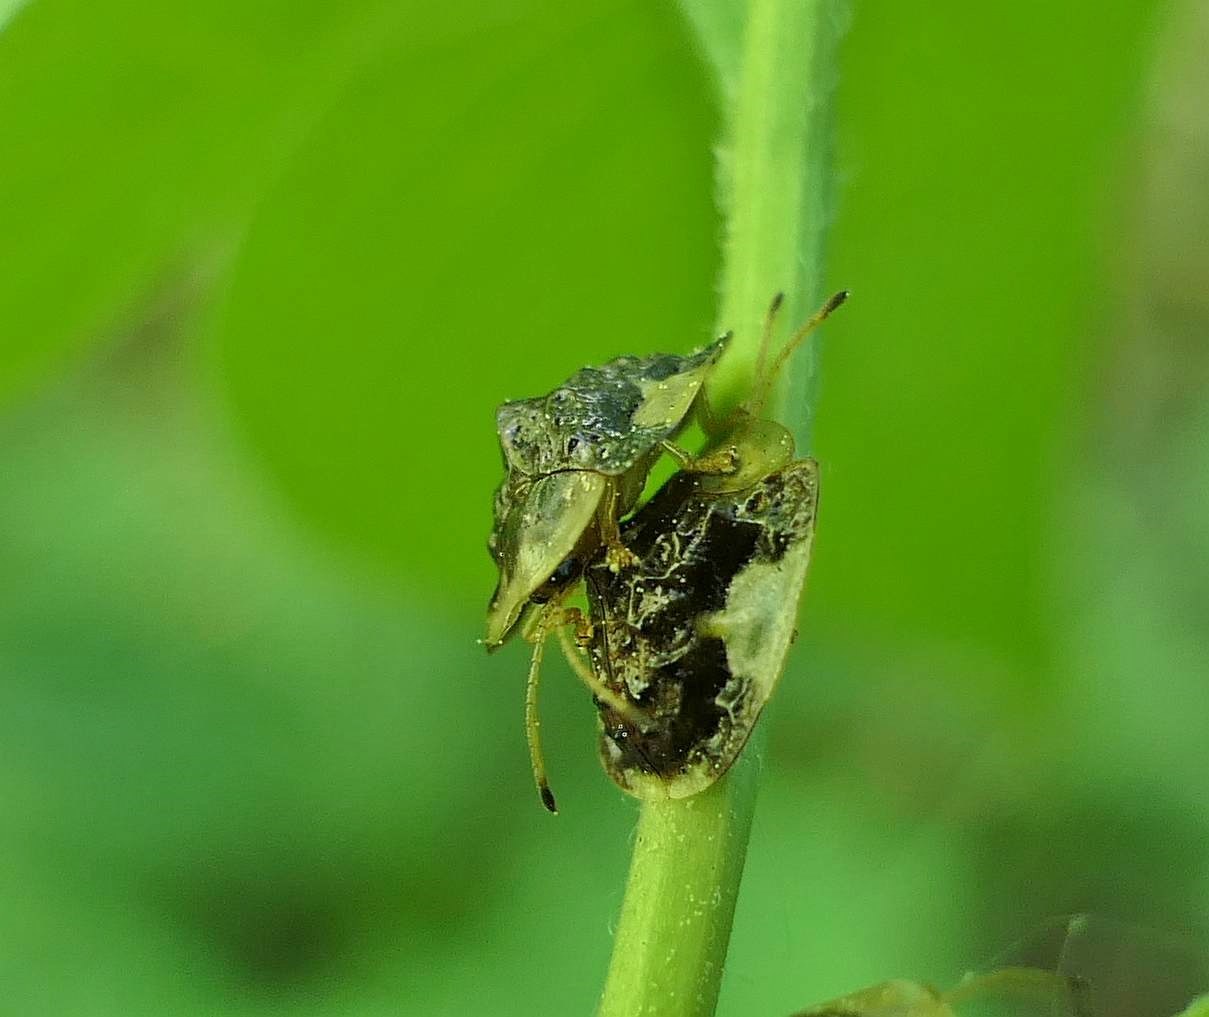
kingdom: Animalia
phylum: Arthropoda
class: Insecta
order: Coleoptera
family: Chrysomelidae
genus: Helocassis
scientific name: Helocassis clavata
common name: Clavate tortoise beetle
